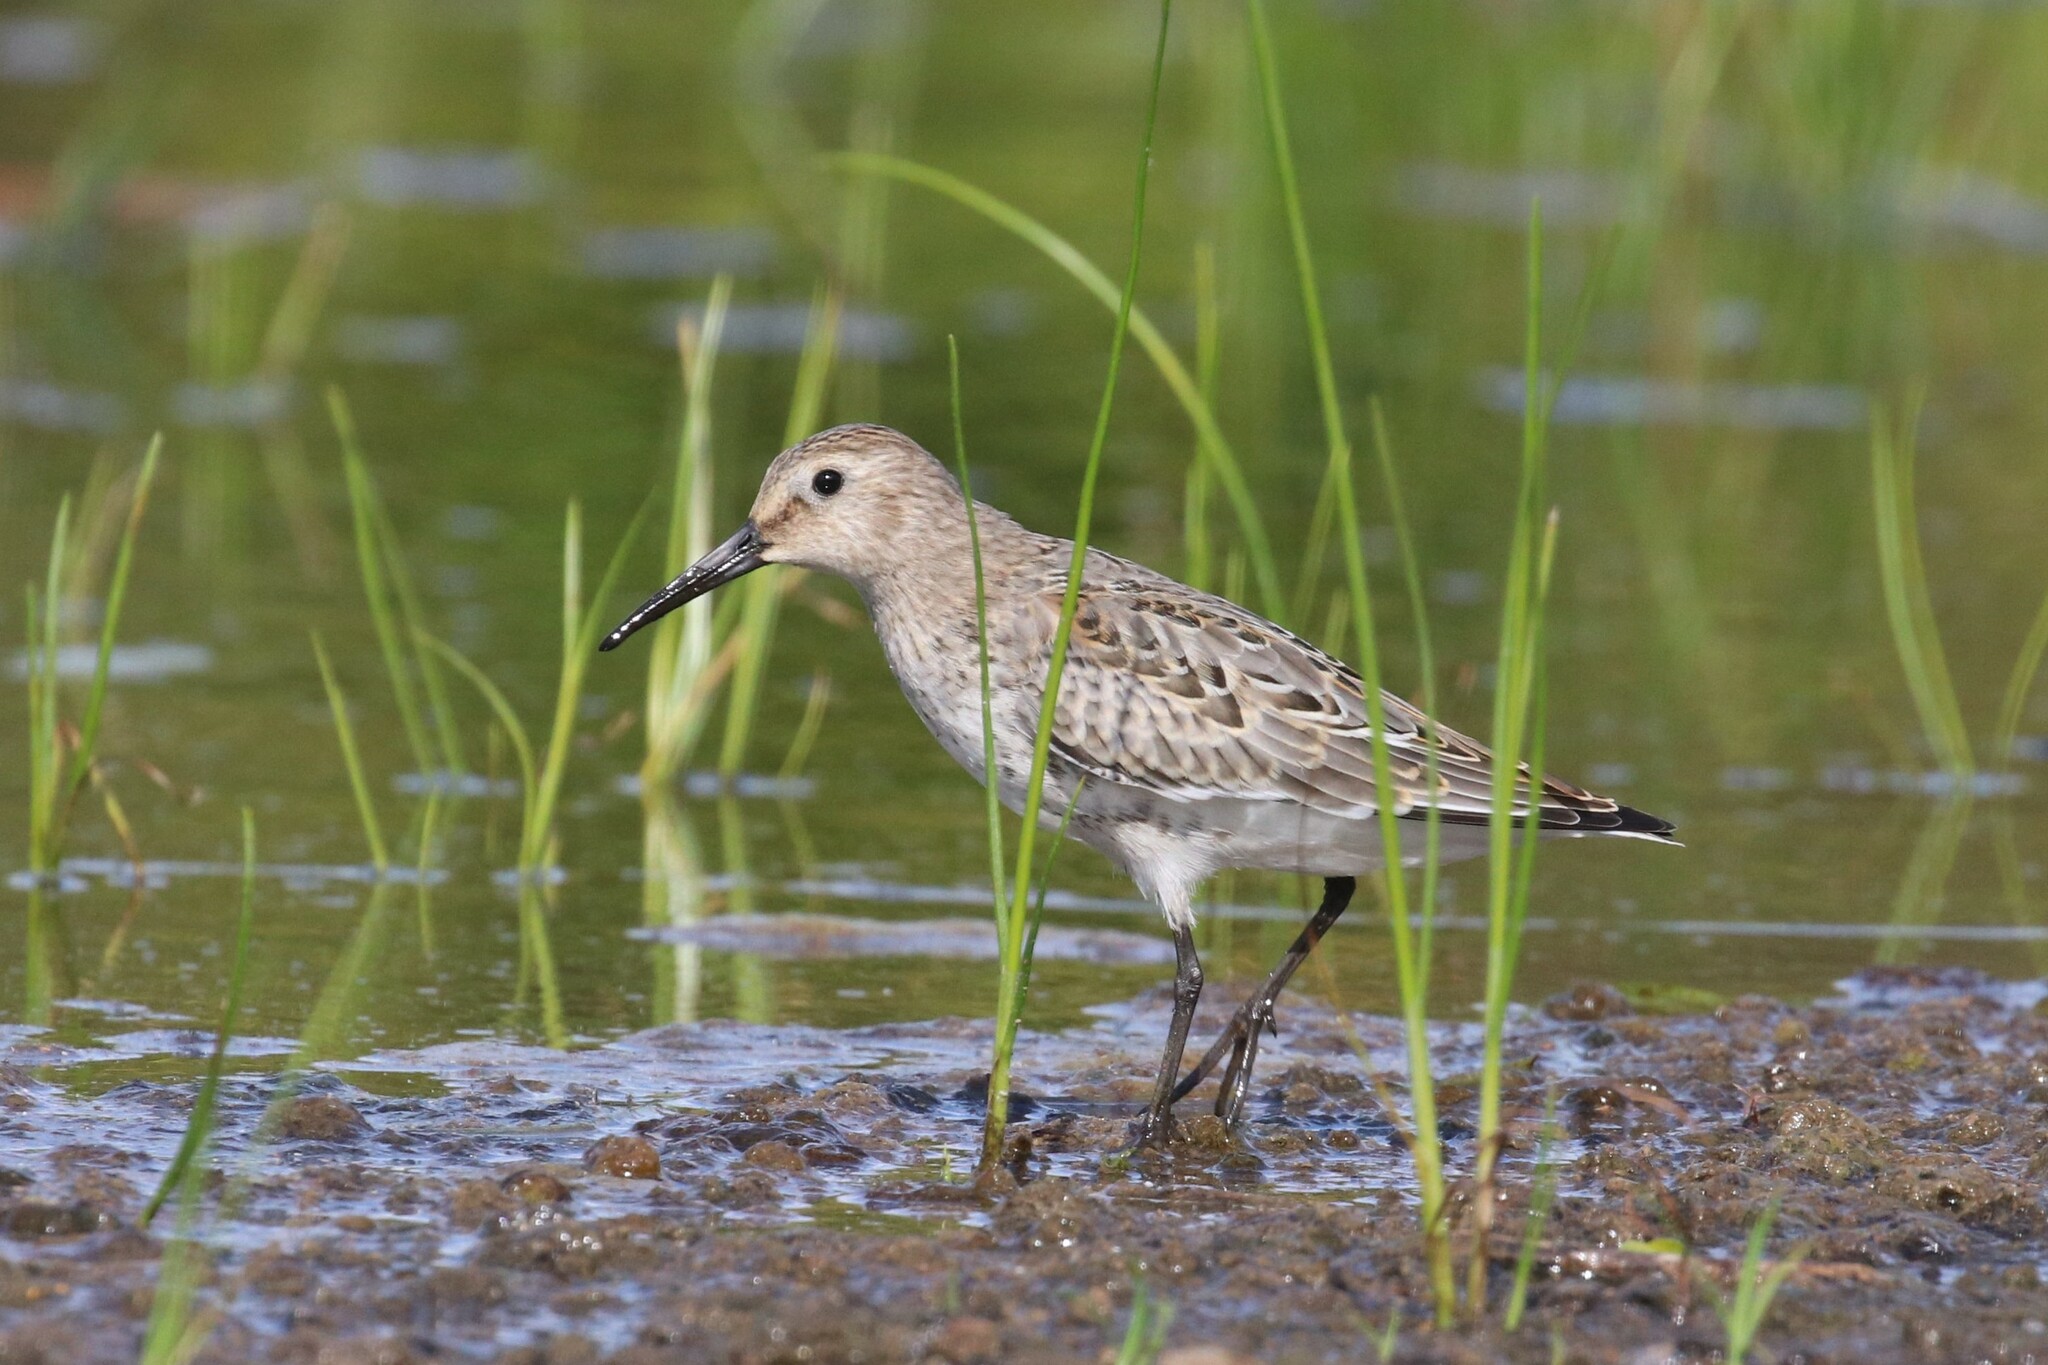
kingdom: Animalia
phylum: Chordata
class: Aves
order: Charadriiformes
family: Scolopacidae
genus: Calidris
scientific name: Calidris alpina
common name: Dunlin
